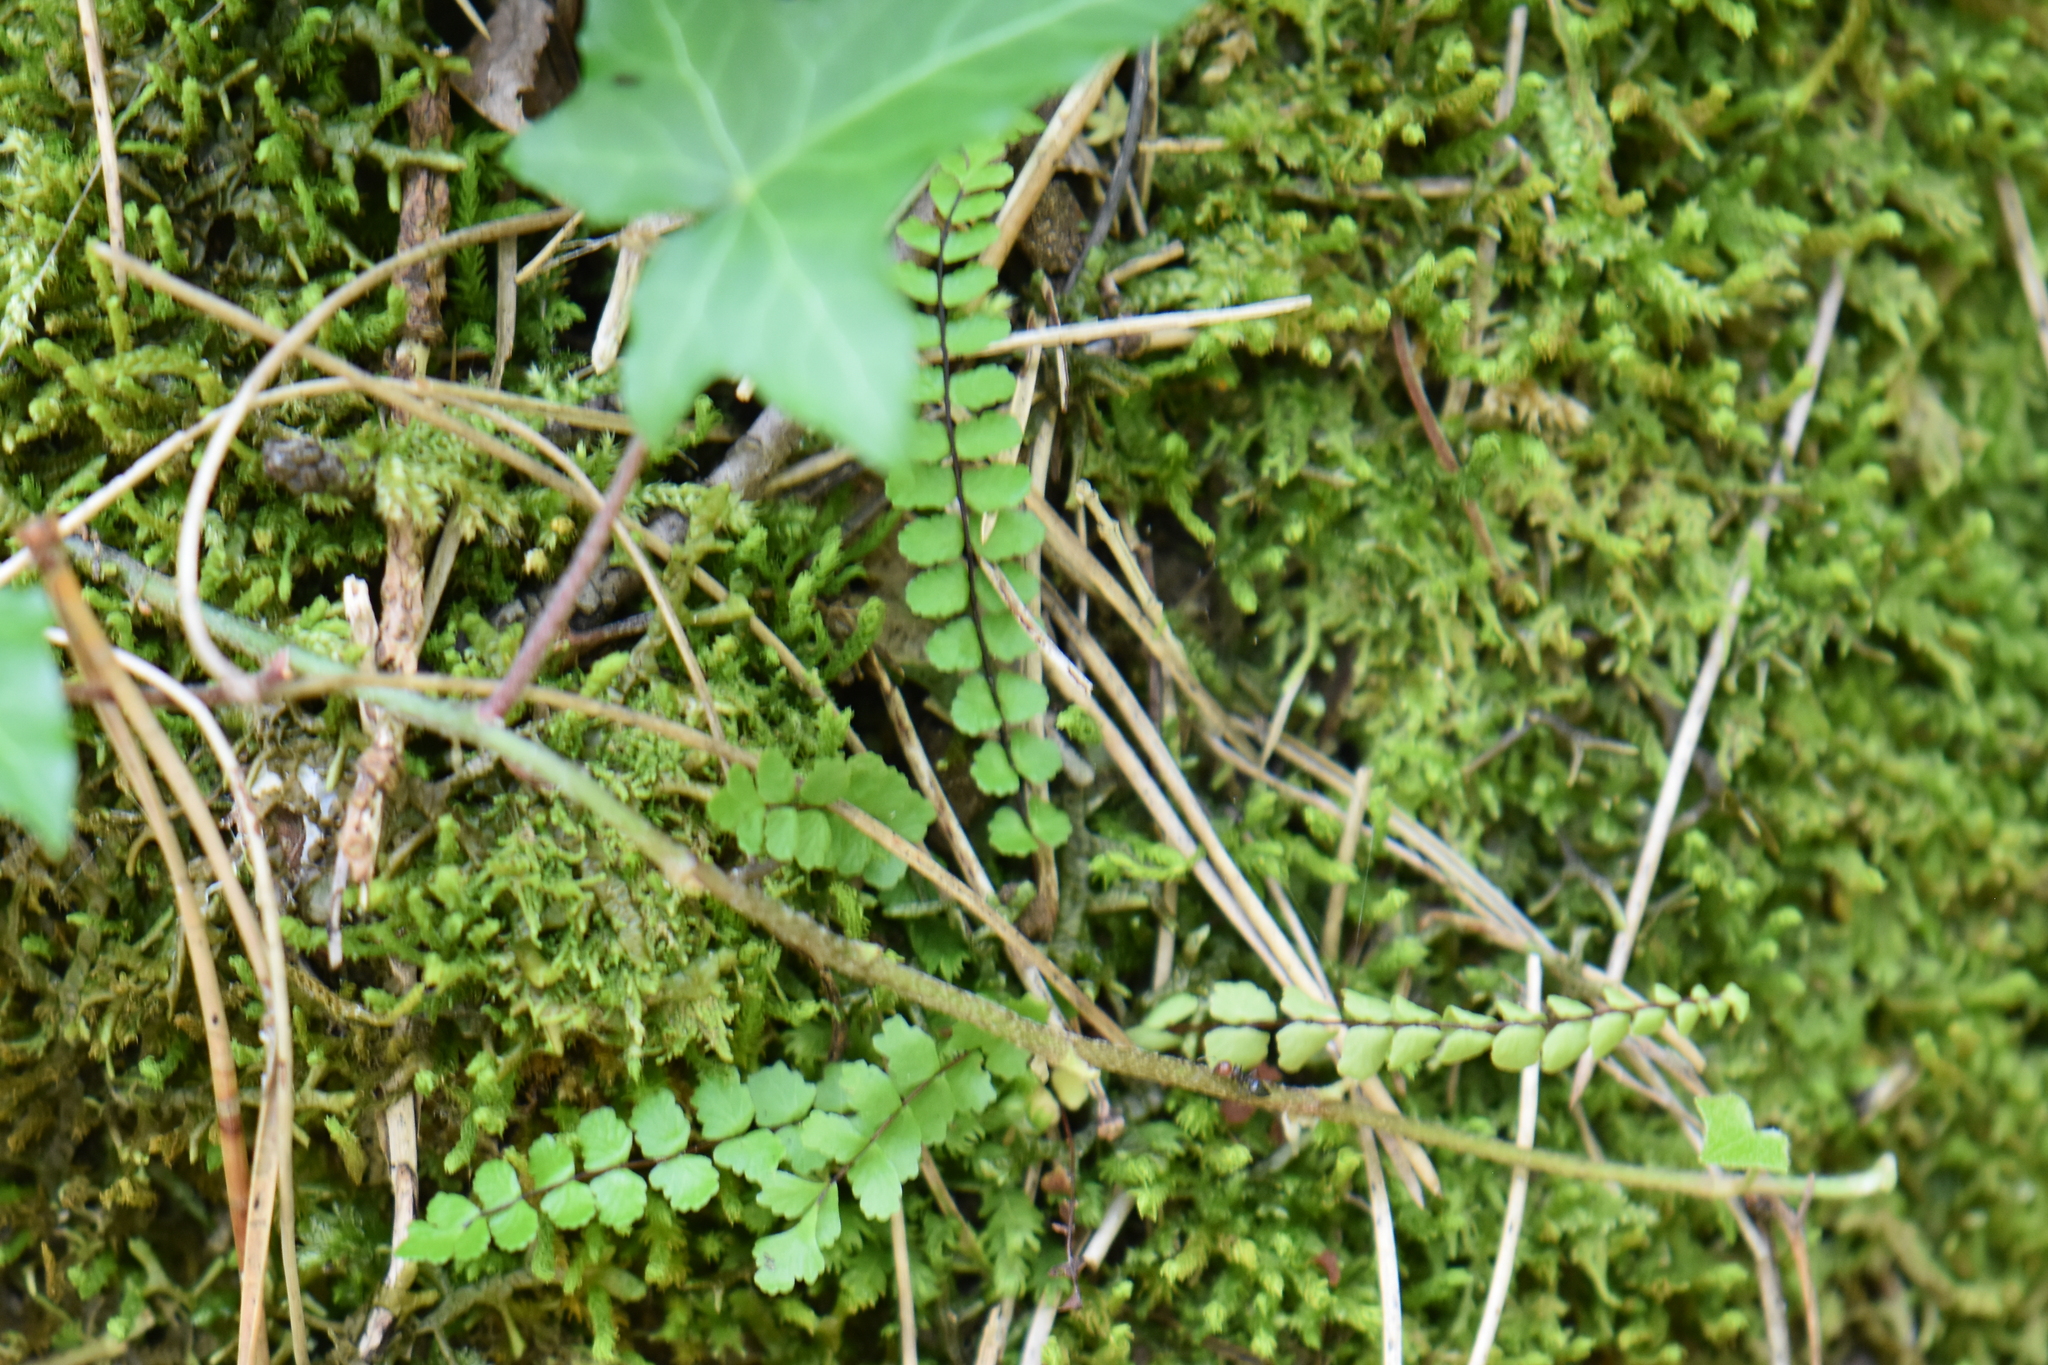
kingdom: Plantae
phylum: Tracheophyta
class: Polypodiopsida
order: Polypodiales
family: Aspleniaceae
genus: Asplenium
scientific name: Asplenium trichomanes
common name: Maidenhair spleenwort
